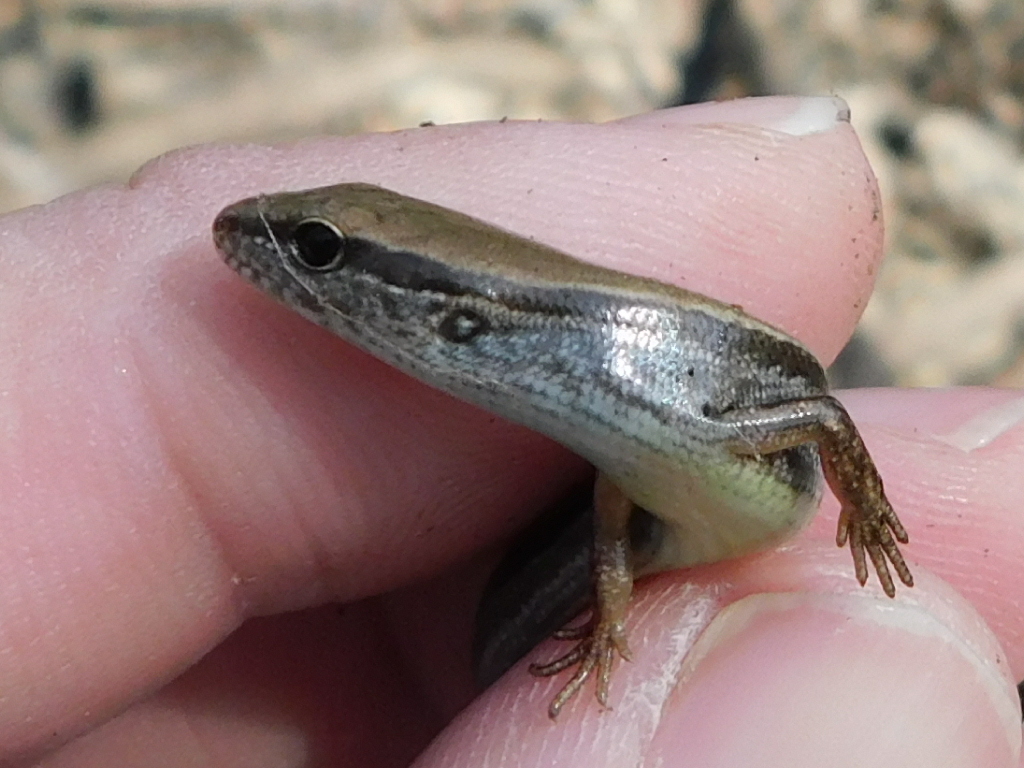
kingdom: Animalia
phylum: Chordata
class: Squamata
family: Scincidae
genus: Scincella
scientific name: Scincella lateralis
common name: Ground skink
